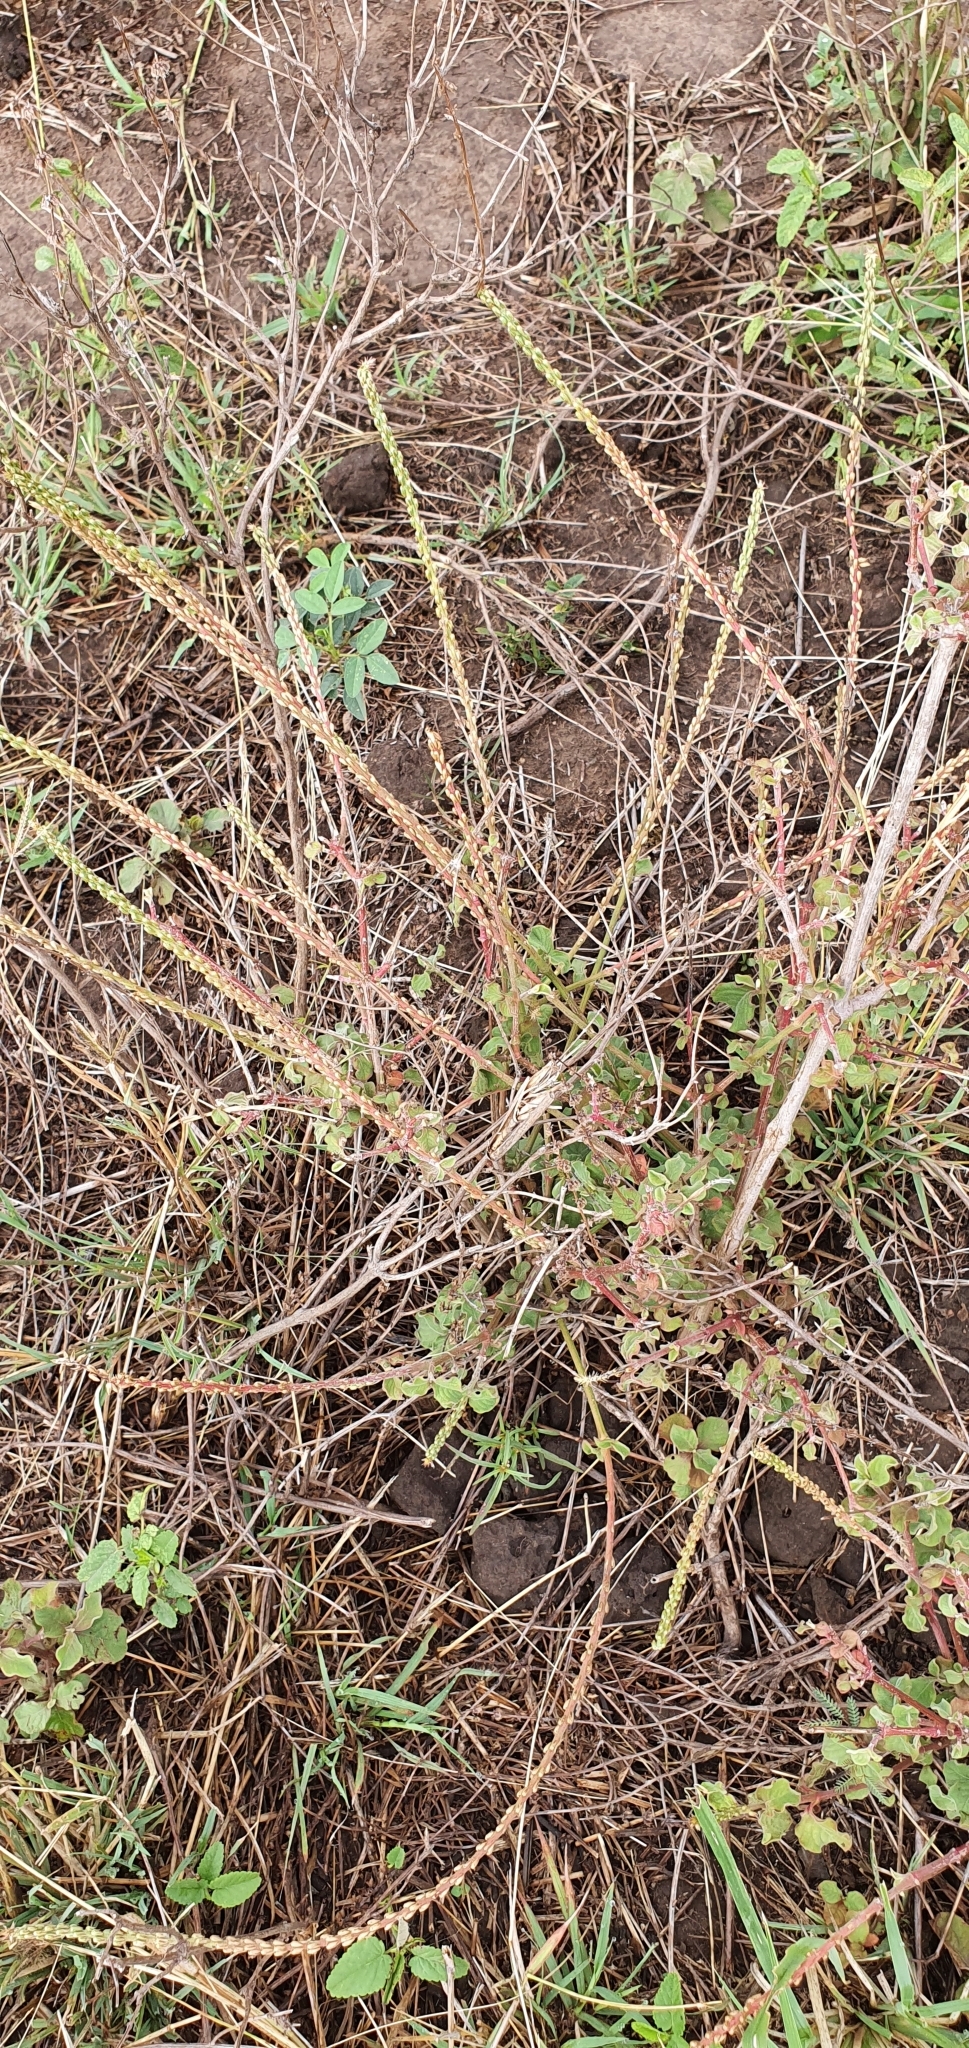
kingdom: Plantae
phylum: Tracheophyta
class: Magnoliopsida
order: Caryophyllales
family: Amaranthaceae
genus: Achyranthes
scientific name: Achyranthes aspera
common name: Devil's horsewhip
